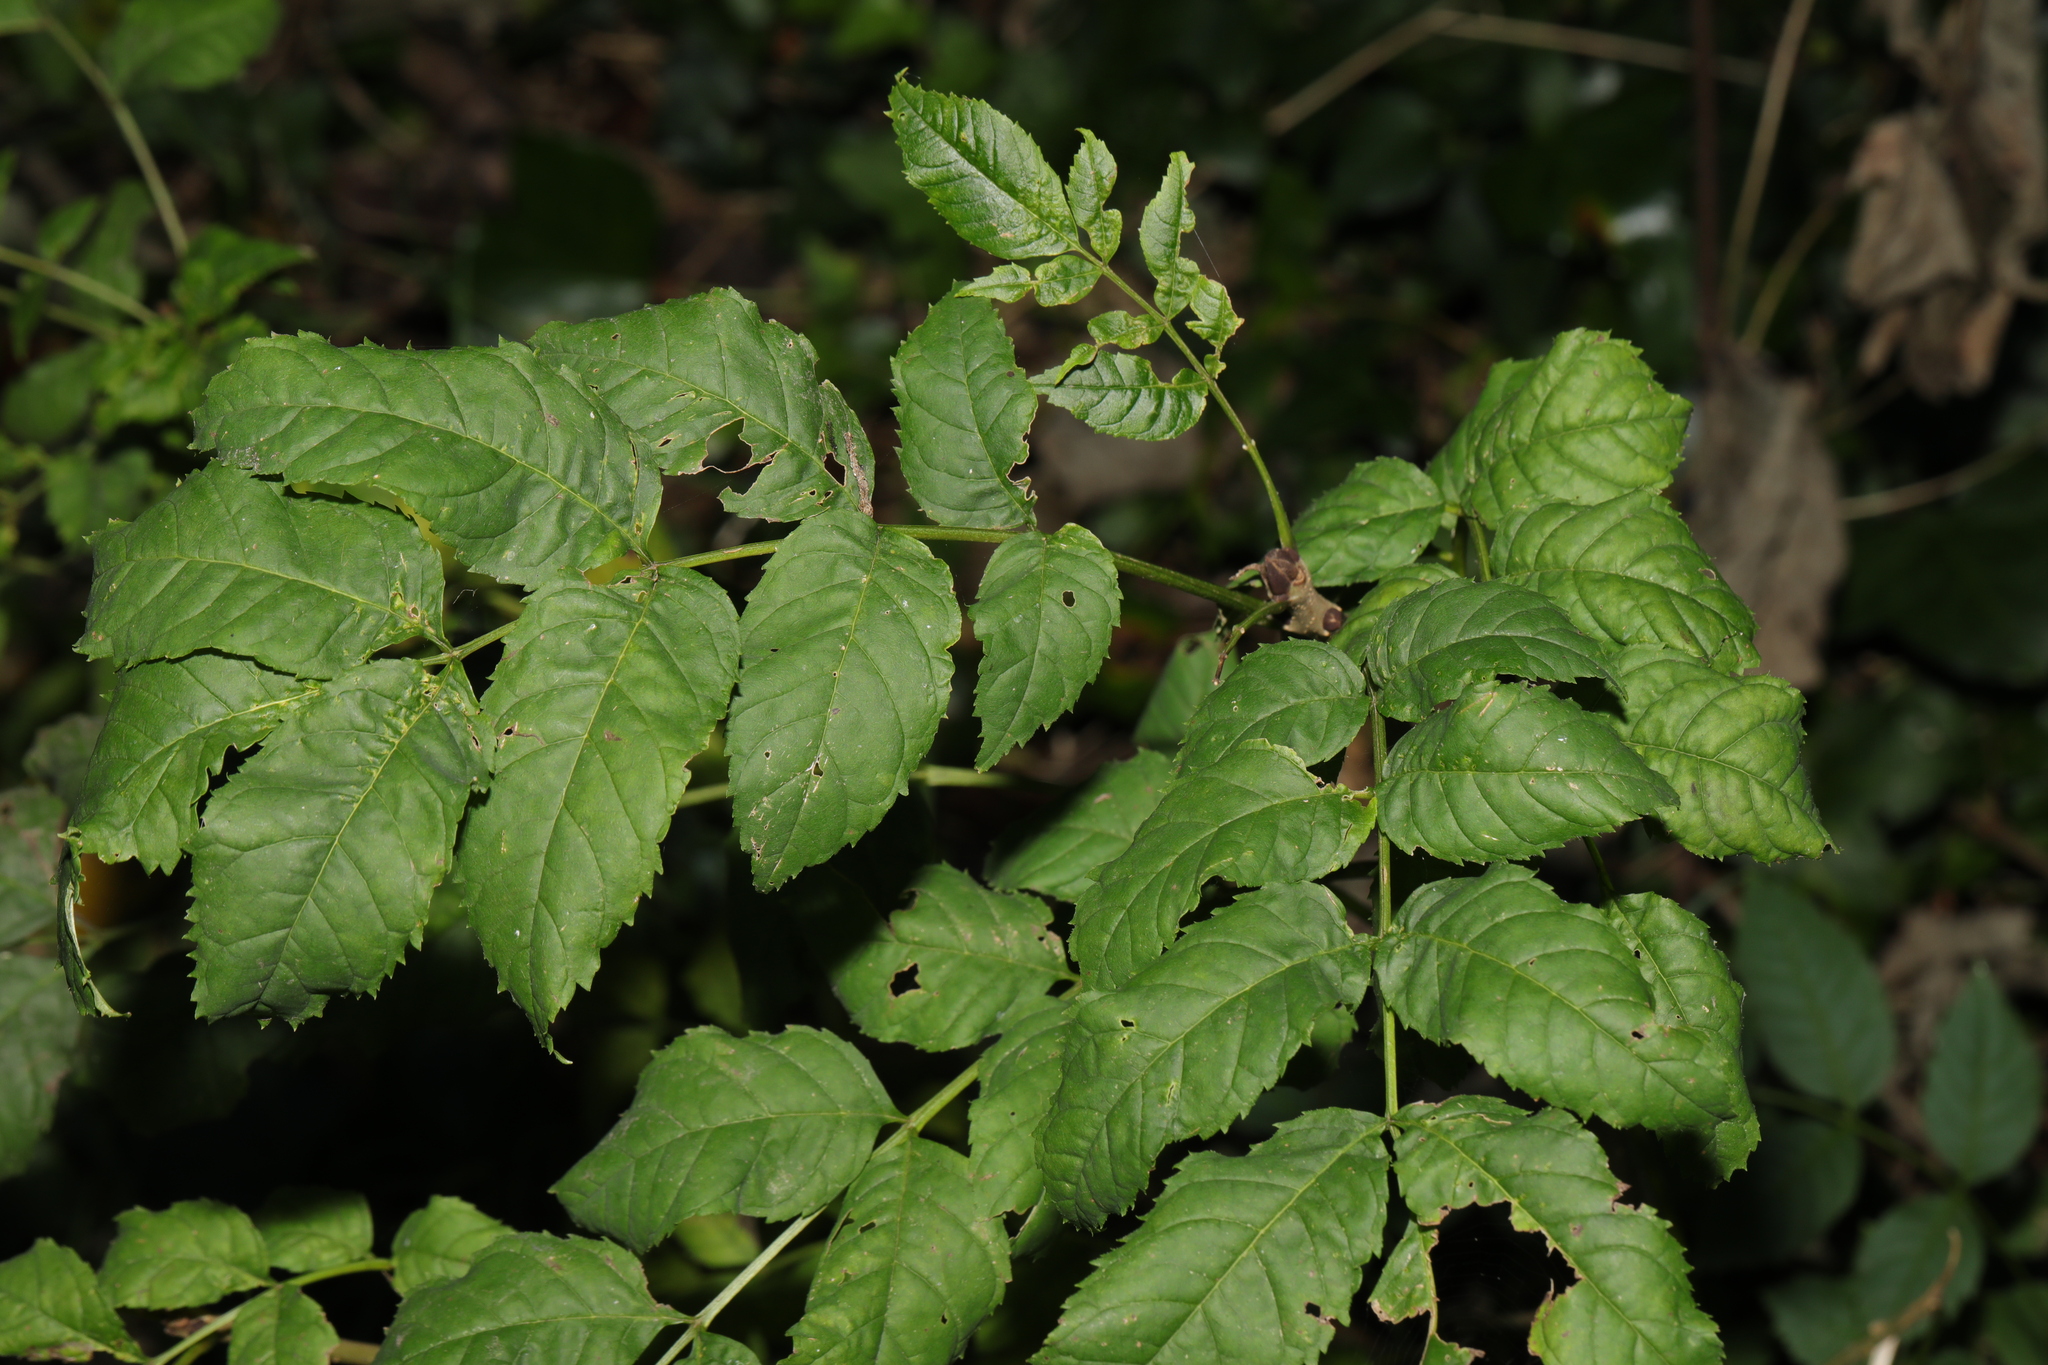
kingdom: Plantae
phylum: Tracheophyta
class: Magnoliopsida
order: Lamiales
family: Oleaceae
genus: Fraxinus
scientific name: Fraxinus excelsior
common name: European ash
